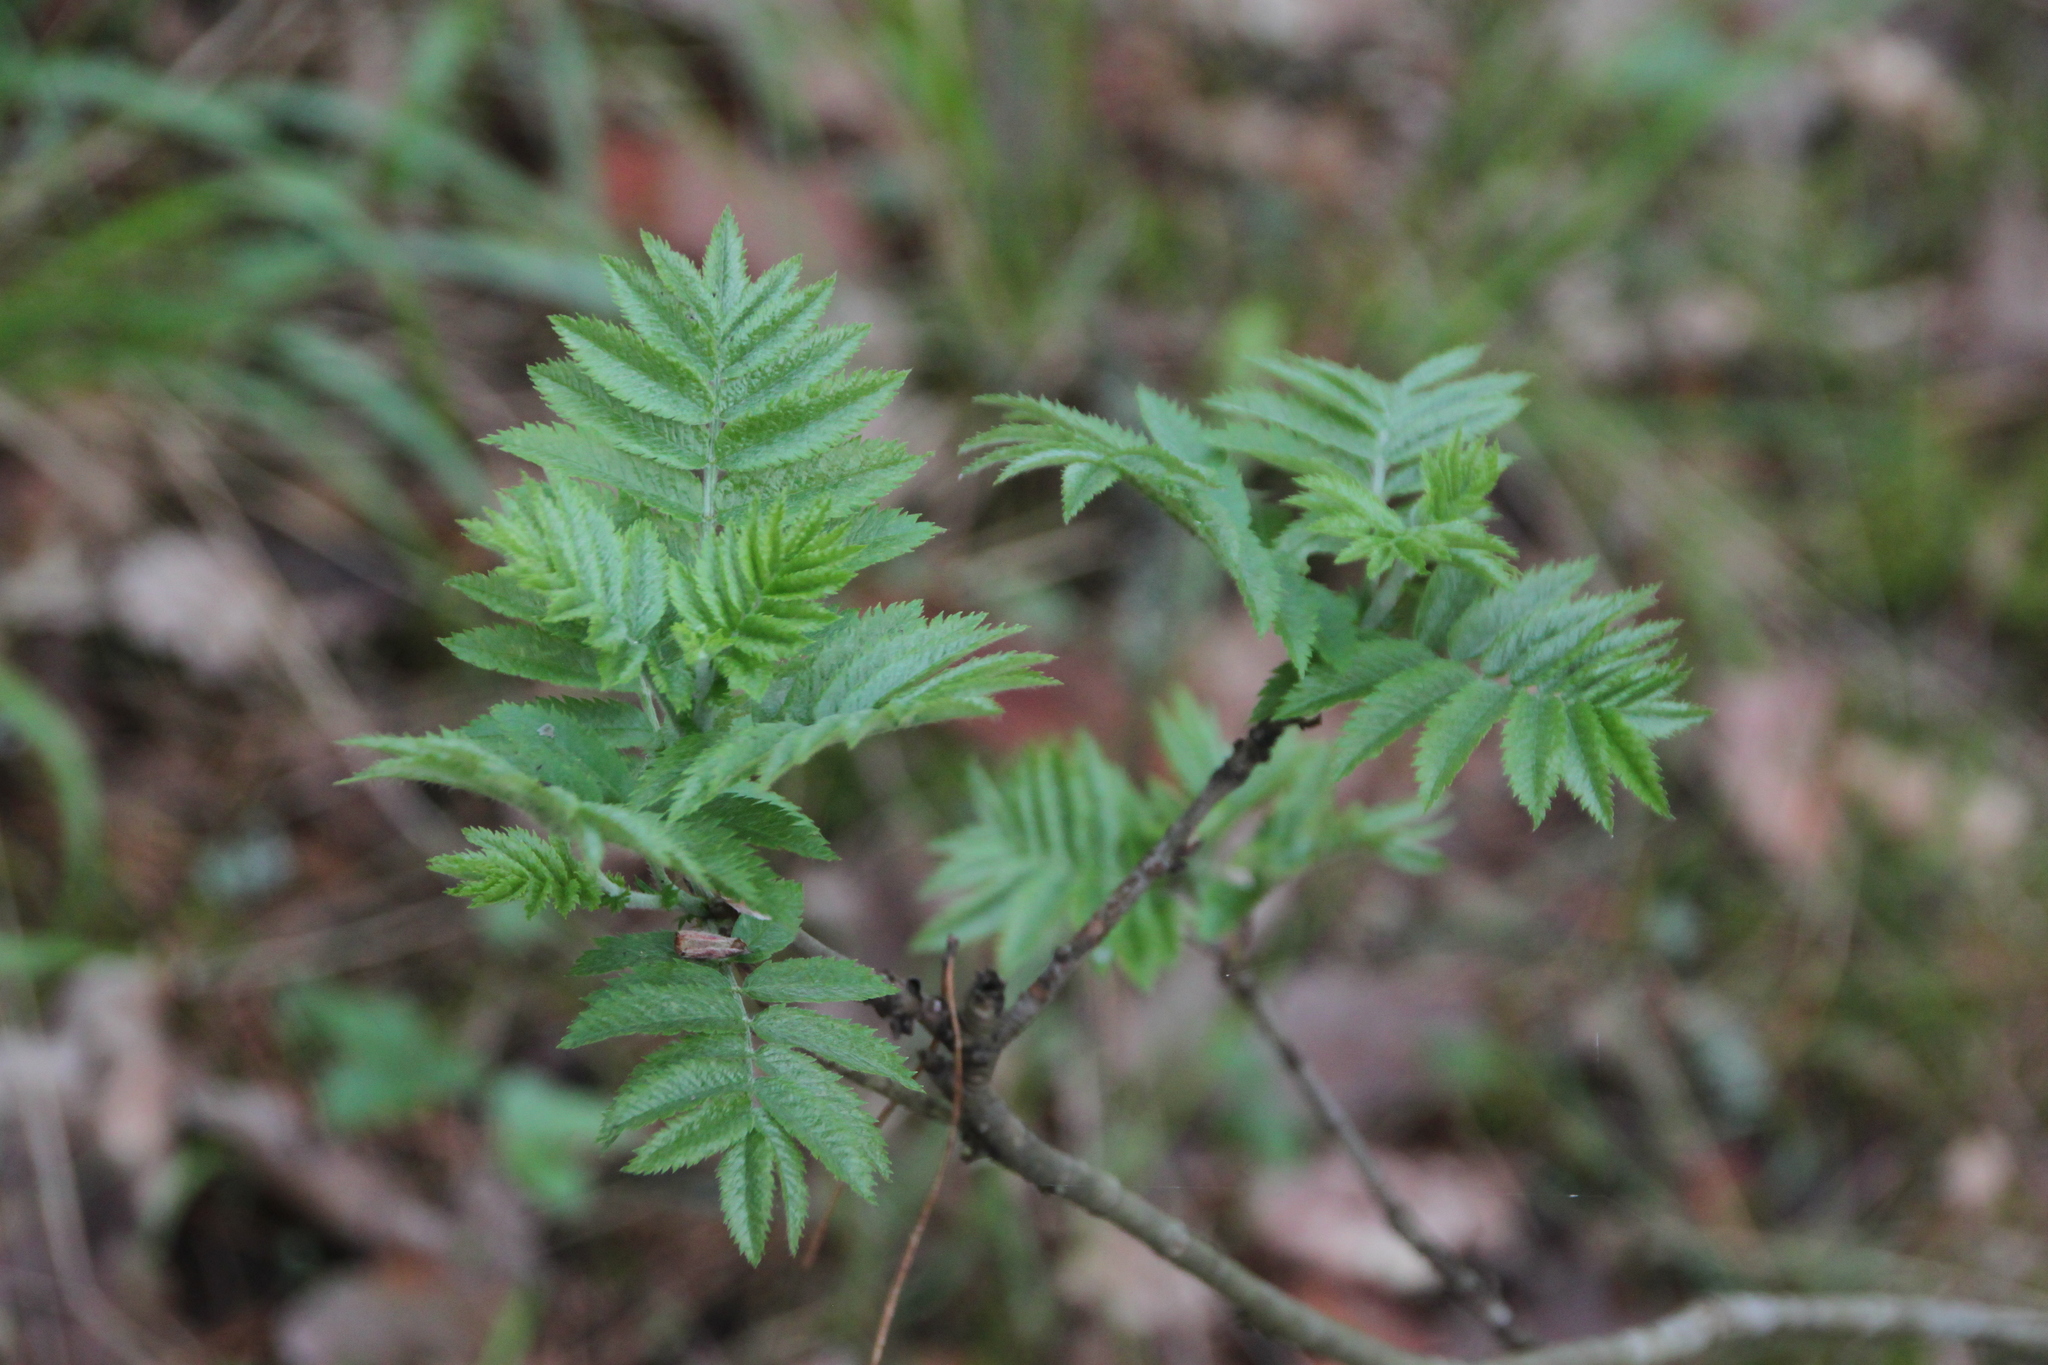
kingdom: Plantae
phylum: Tracheophyta
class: Magnoliopsida
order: Rosales
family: Rosaceae
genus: Sorbus
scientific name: Sorbus aucuparia
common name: Rowan
